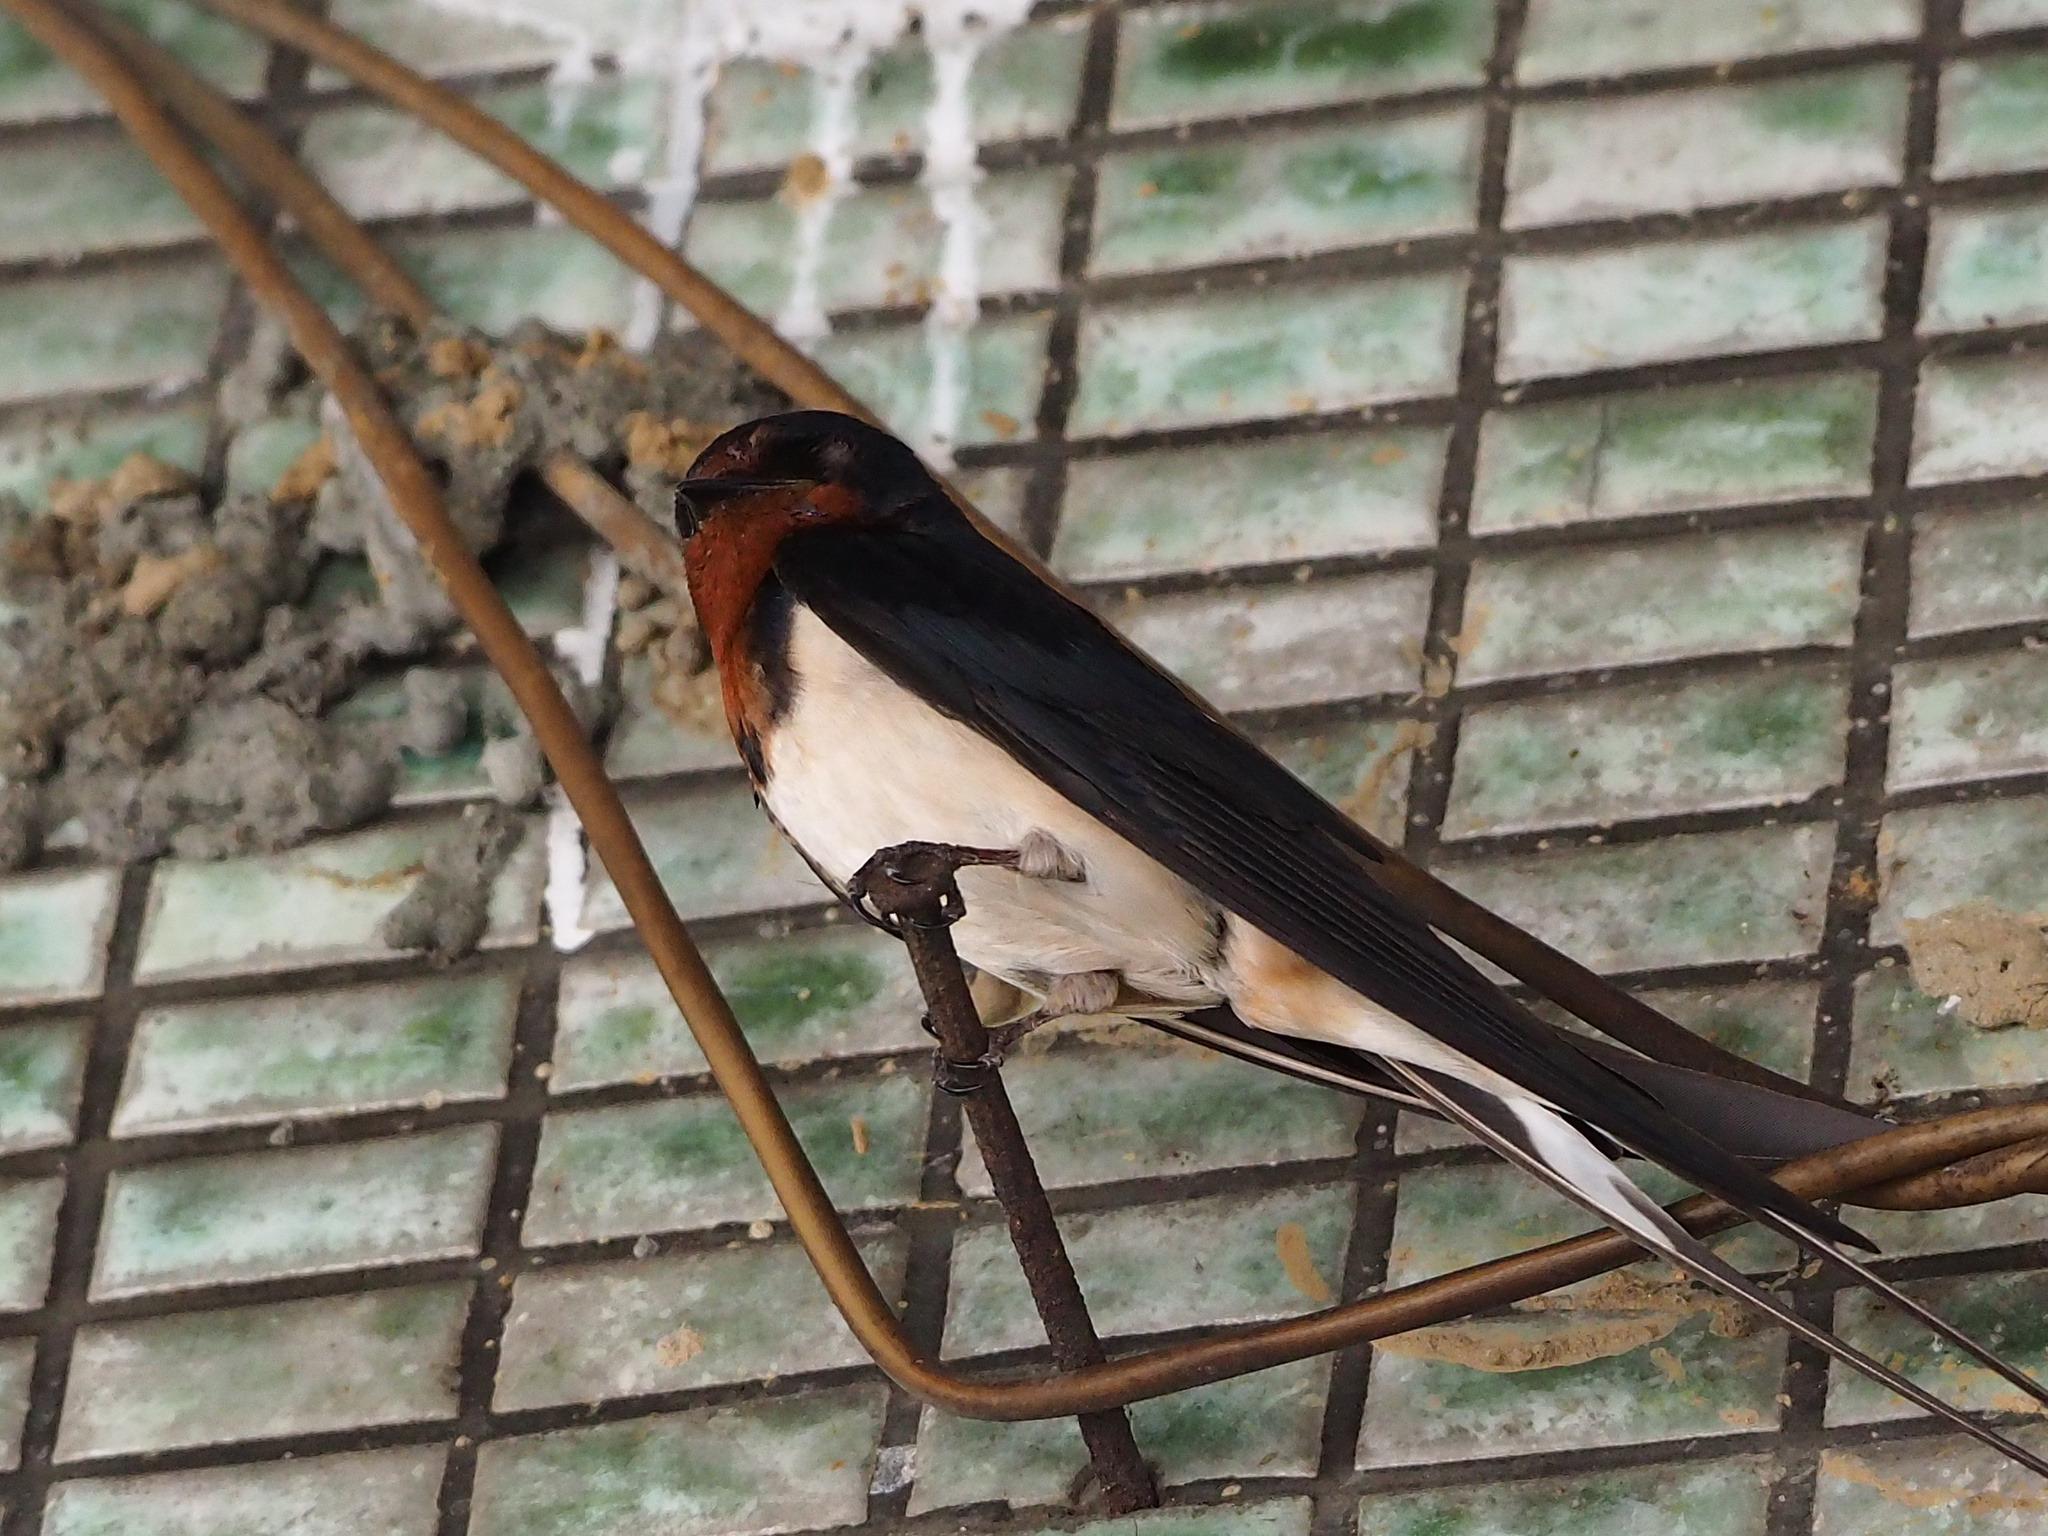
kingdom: Animalia
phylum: Chordata
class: Aves
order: Passeriformes
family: Hirundinidae
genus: Hirundo
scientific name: Hirundo rustica
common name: Barn swallow
